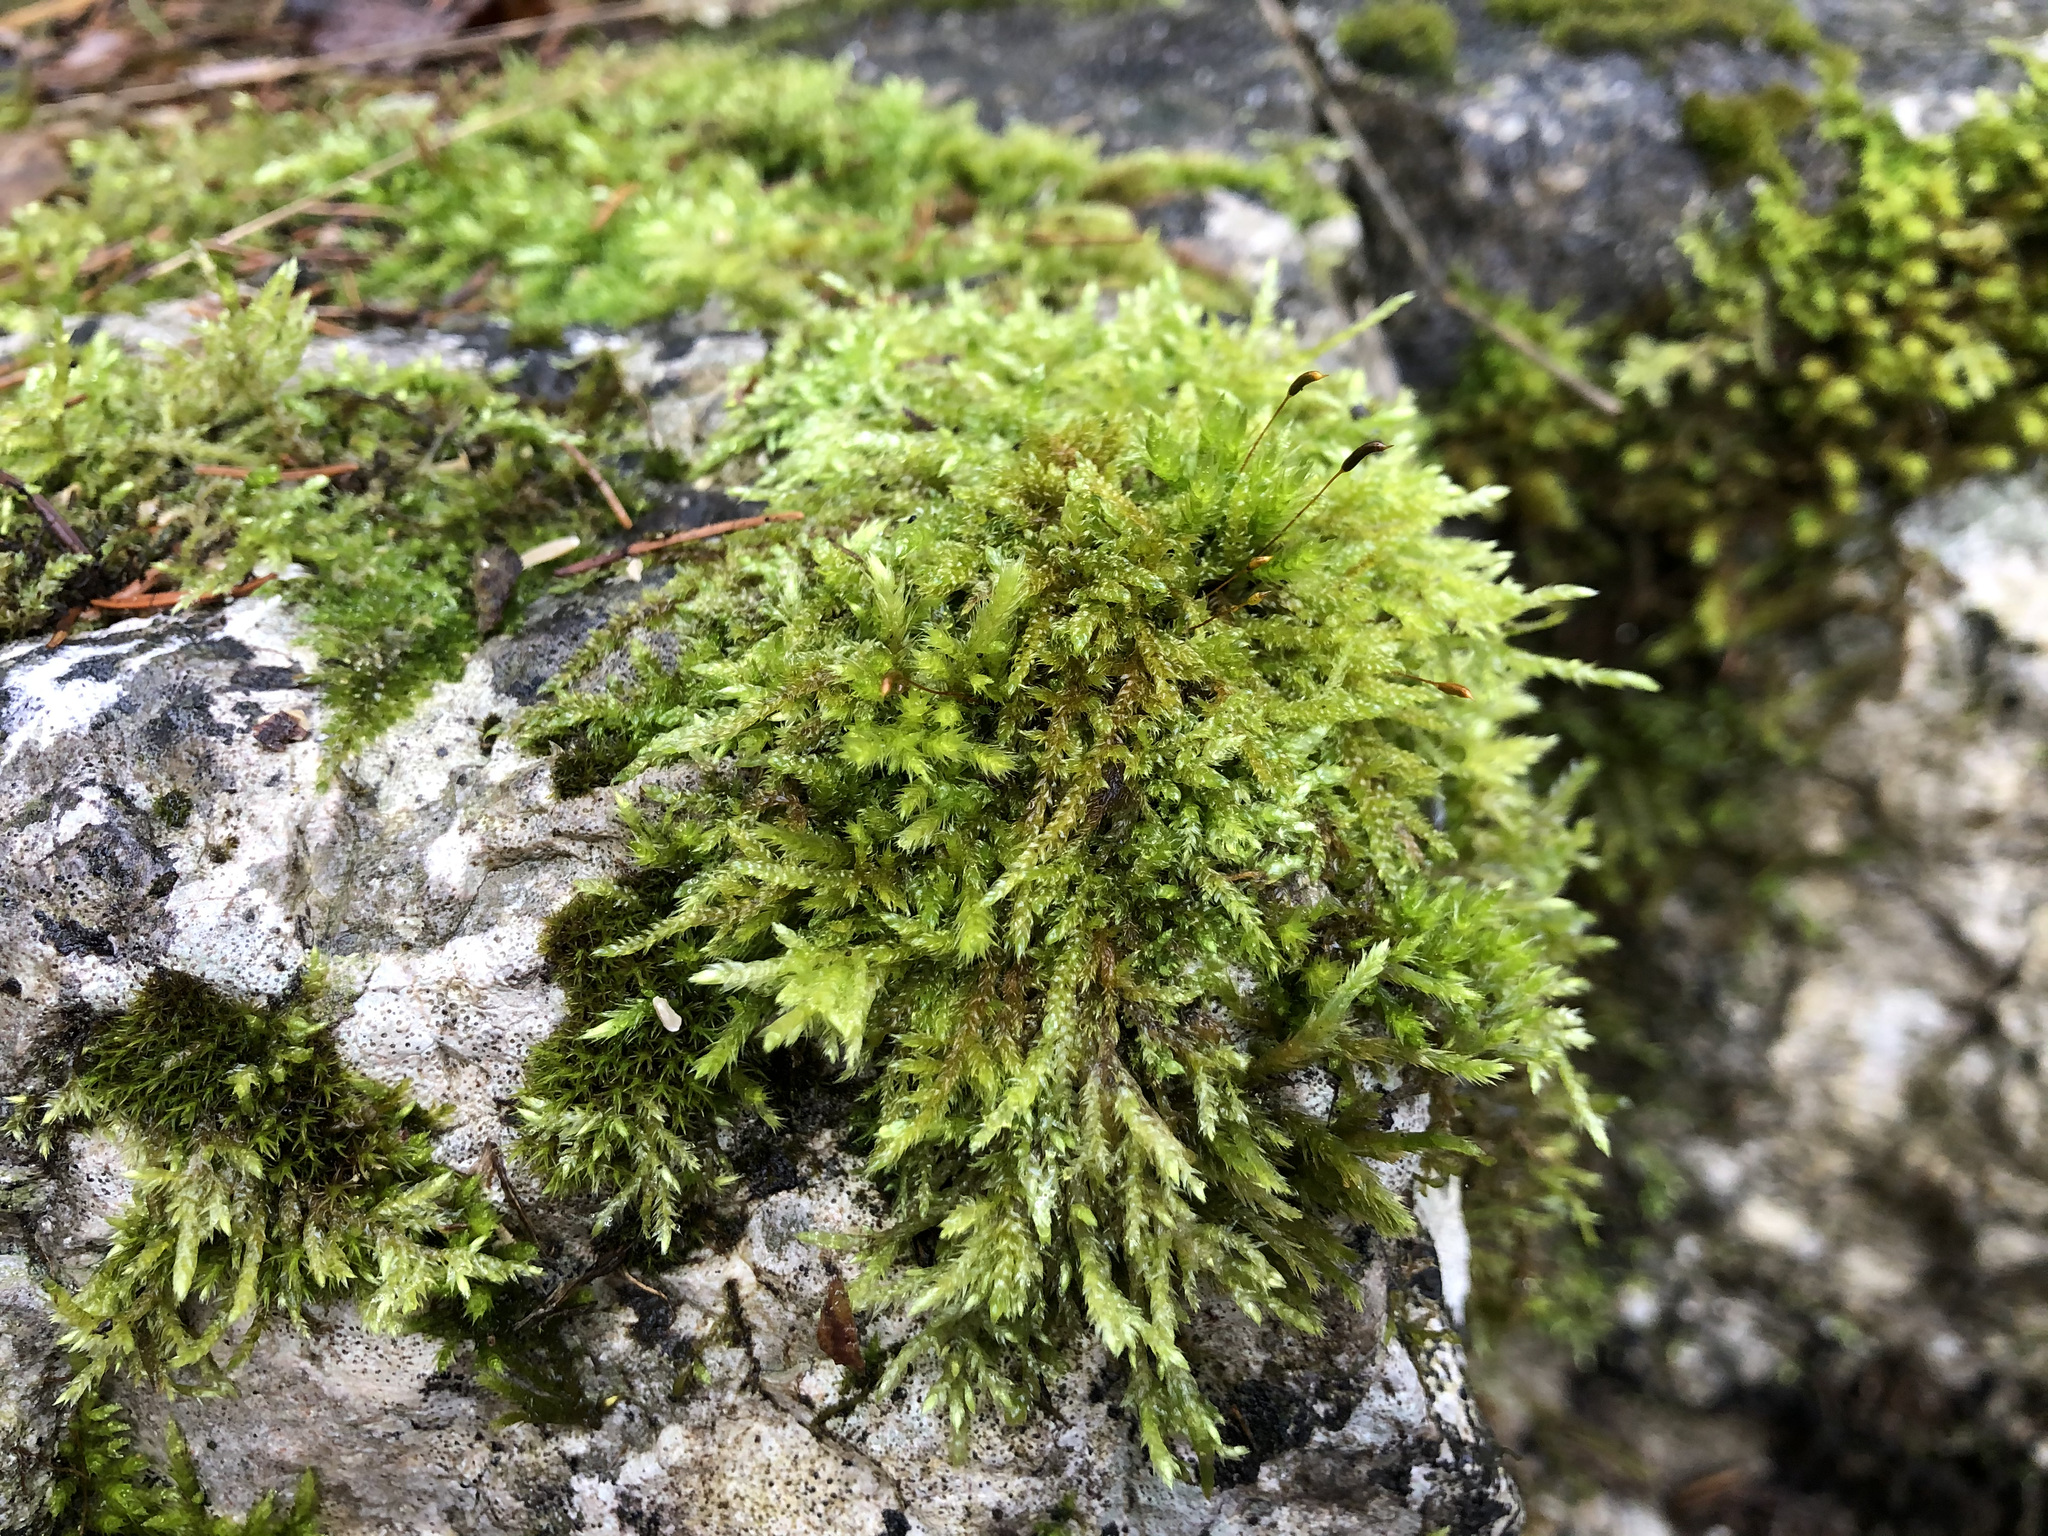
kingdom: Plantae
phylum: Bryophyta
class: Bryopsida
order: Hypnales
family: Hypnaceae
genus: Hypnum
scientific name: Hypnum cupressiforme
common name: Cypress-leaved plait-moss
